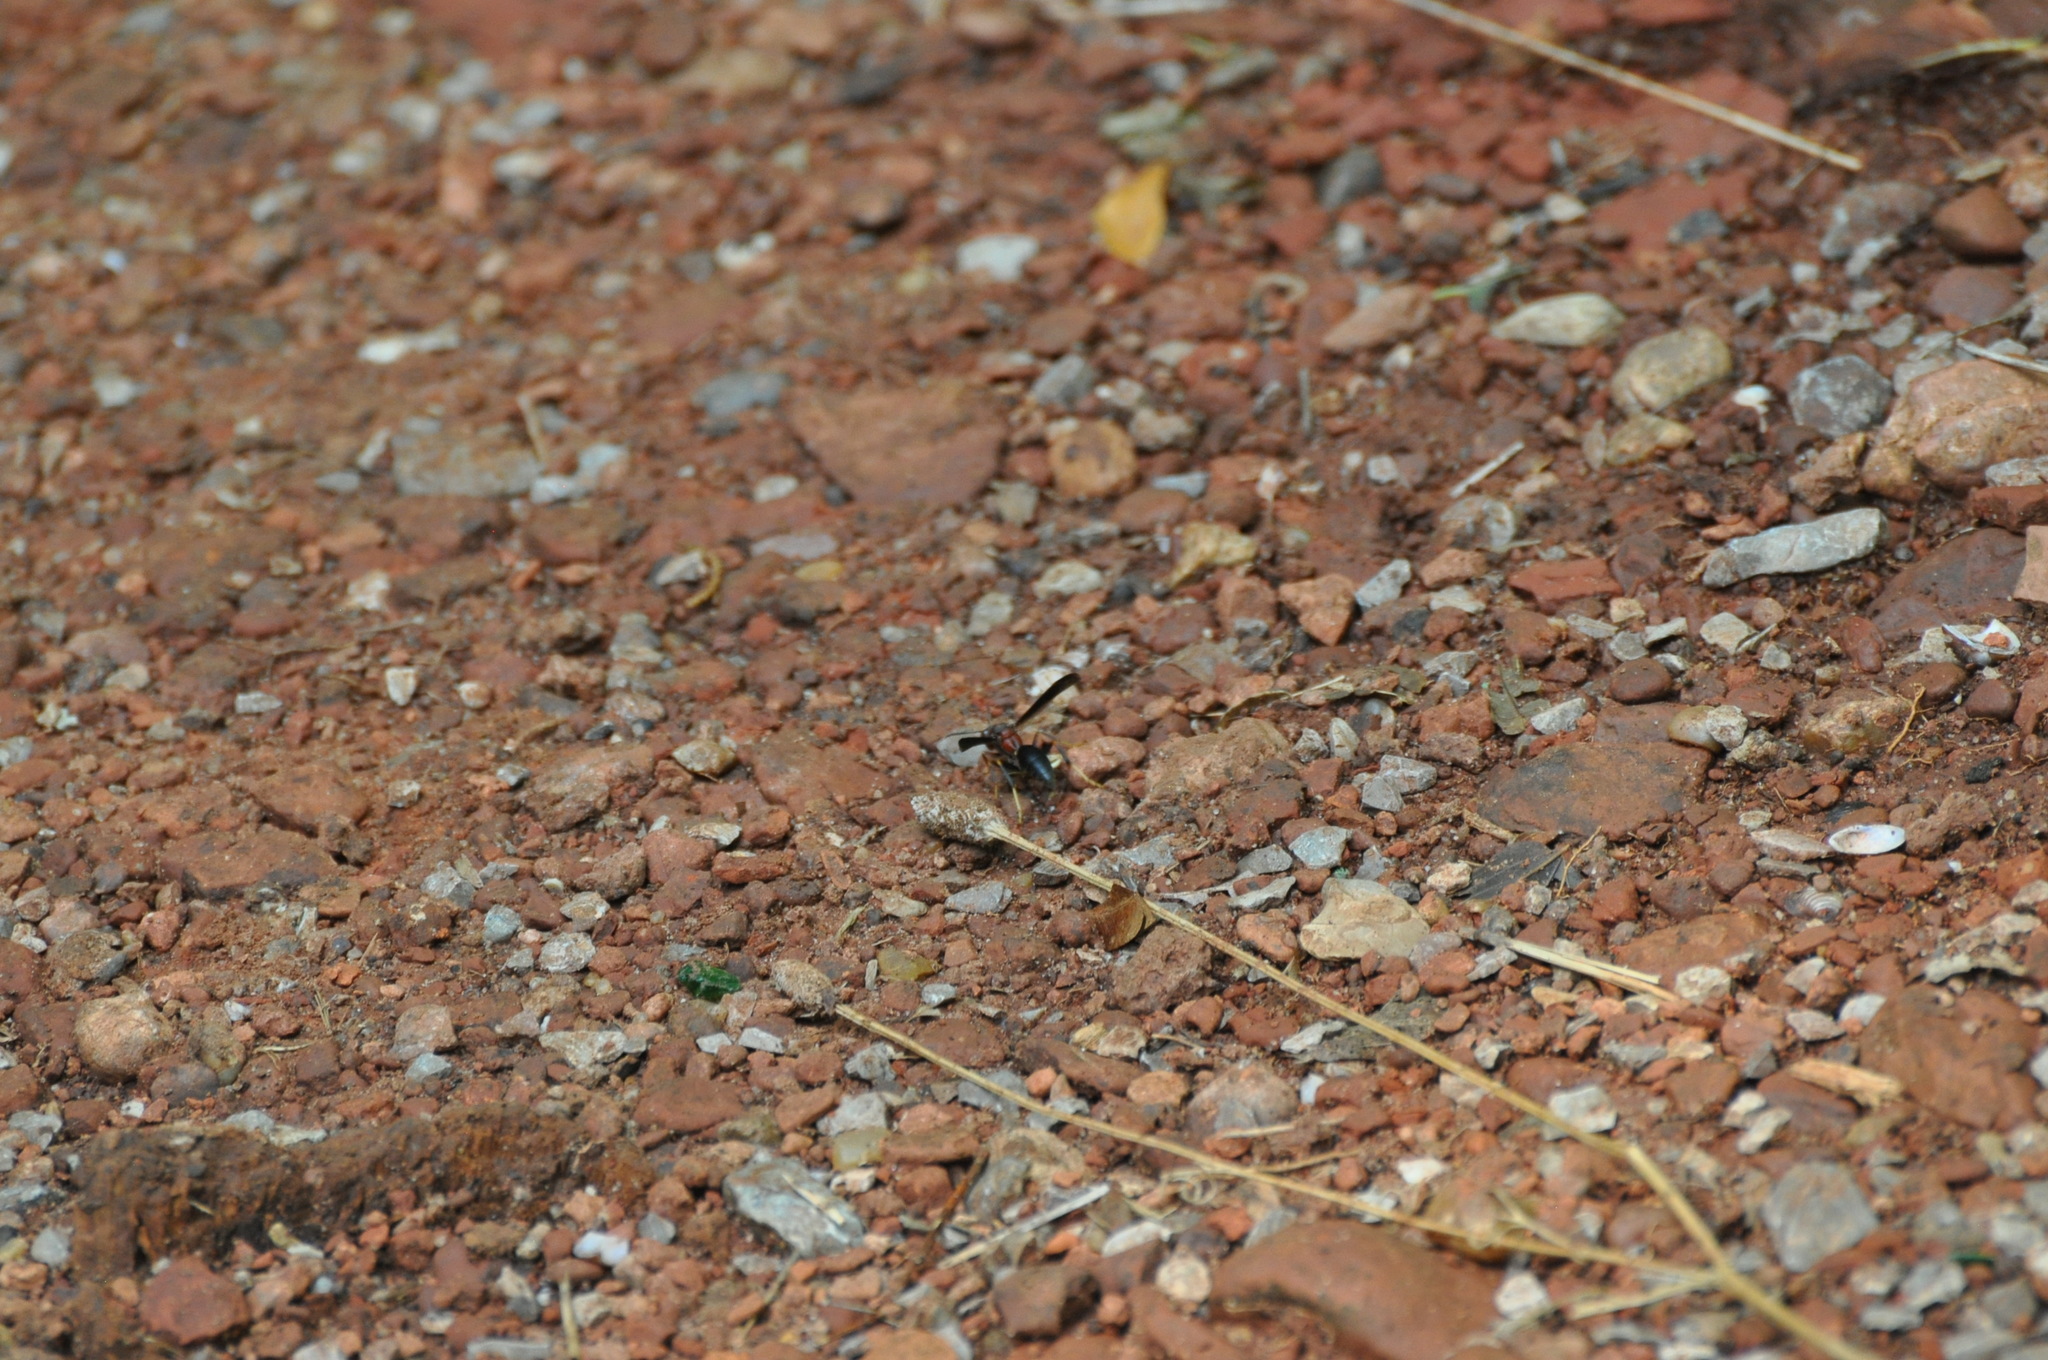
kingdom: Animalia
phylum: Arthropoda
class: Insecta
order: Hymenoptera
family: Eumenidae
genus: Polistes
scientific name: Polistes metricus
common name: Metric paper wasp
